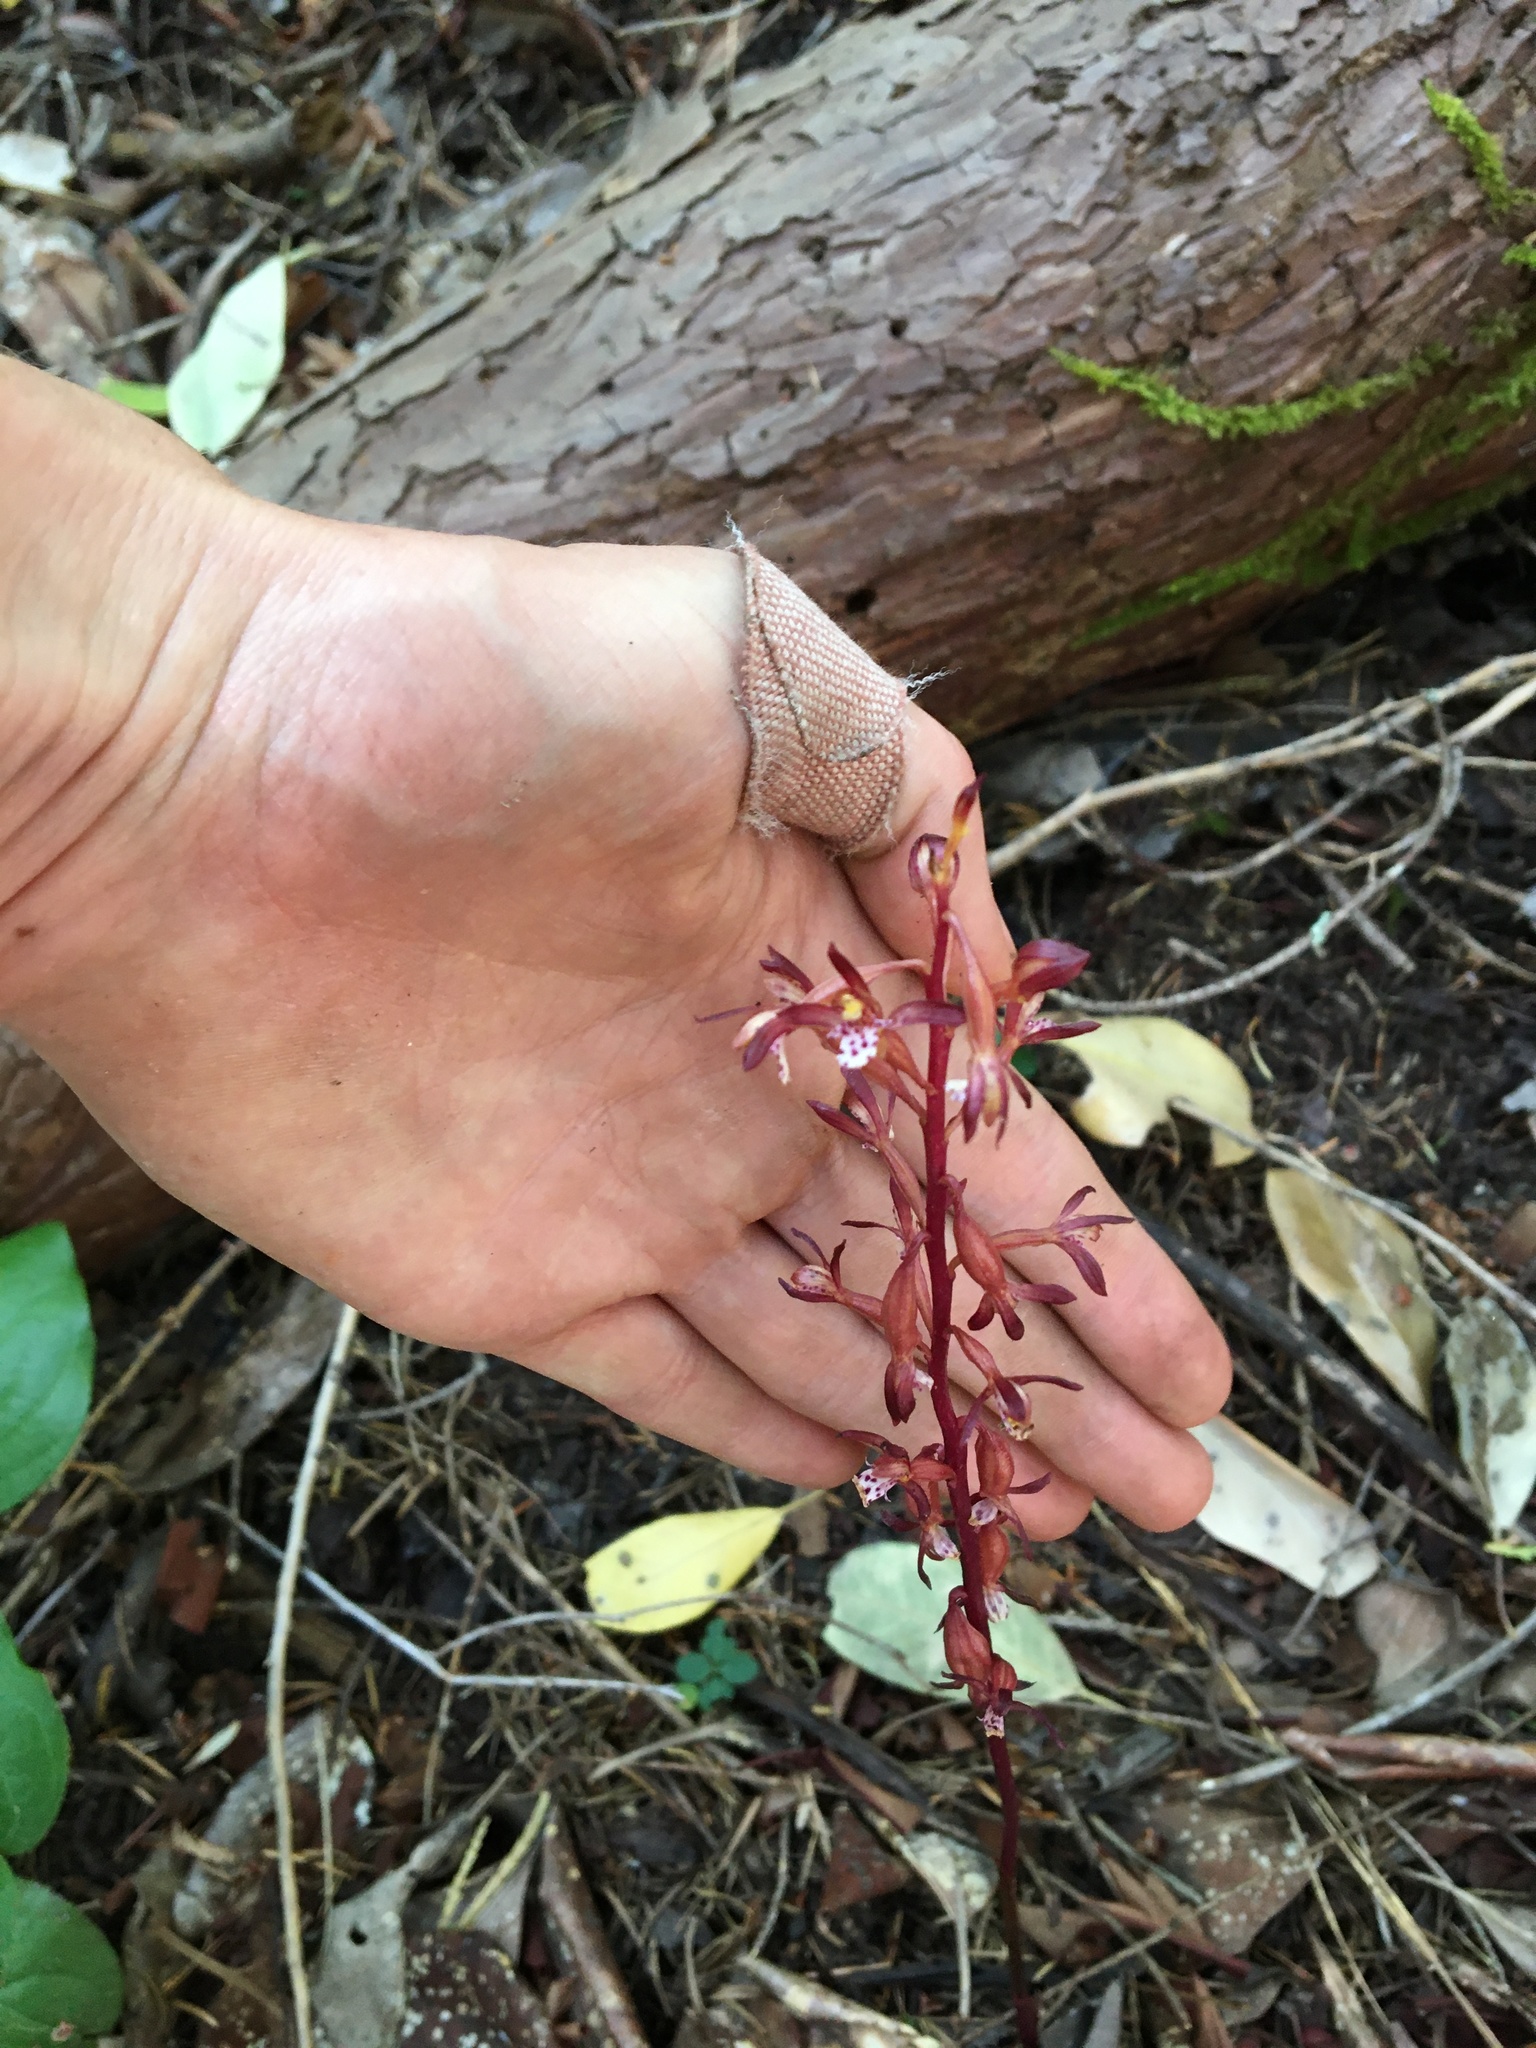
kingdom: Plantae
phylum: Tracheophyta
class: Liliopsida
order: Asparagales
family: Orchidaceae
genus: Corallorhiza
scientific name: Corallorhiza maculata
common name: Spotted coralroot
